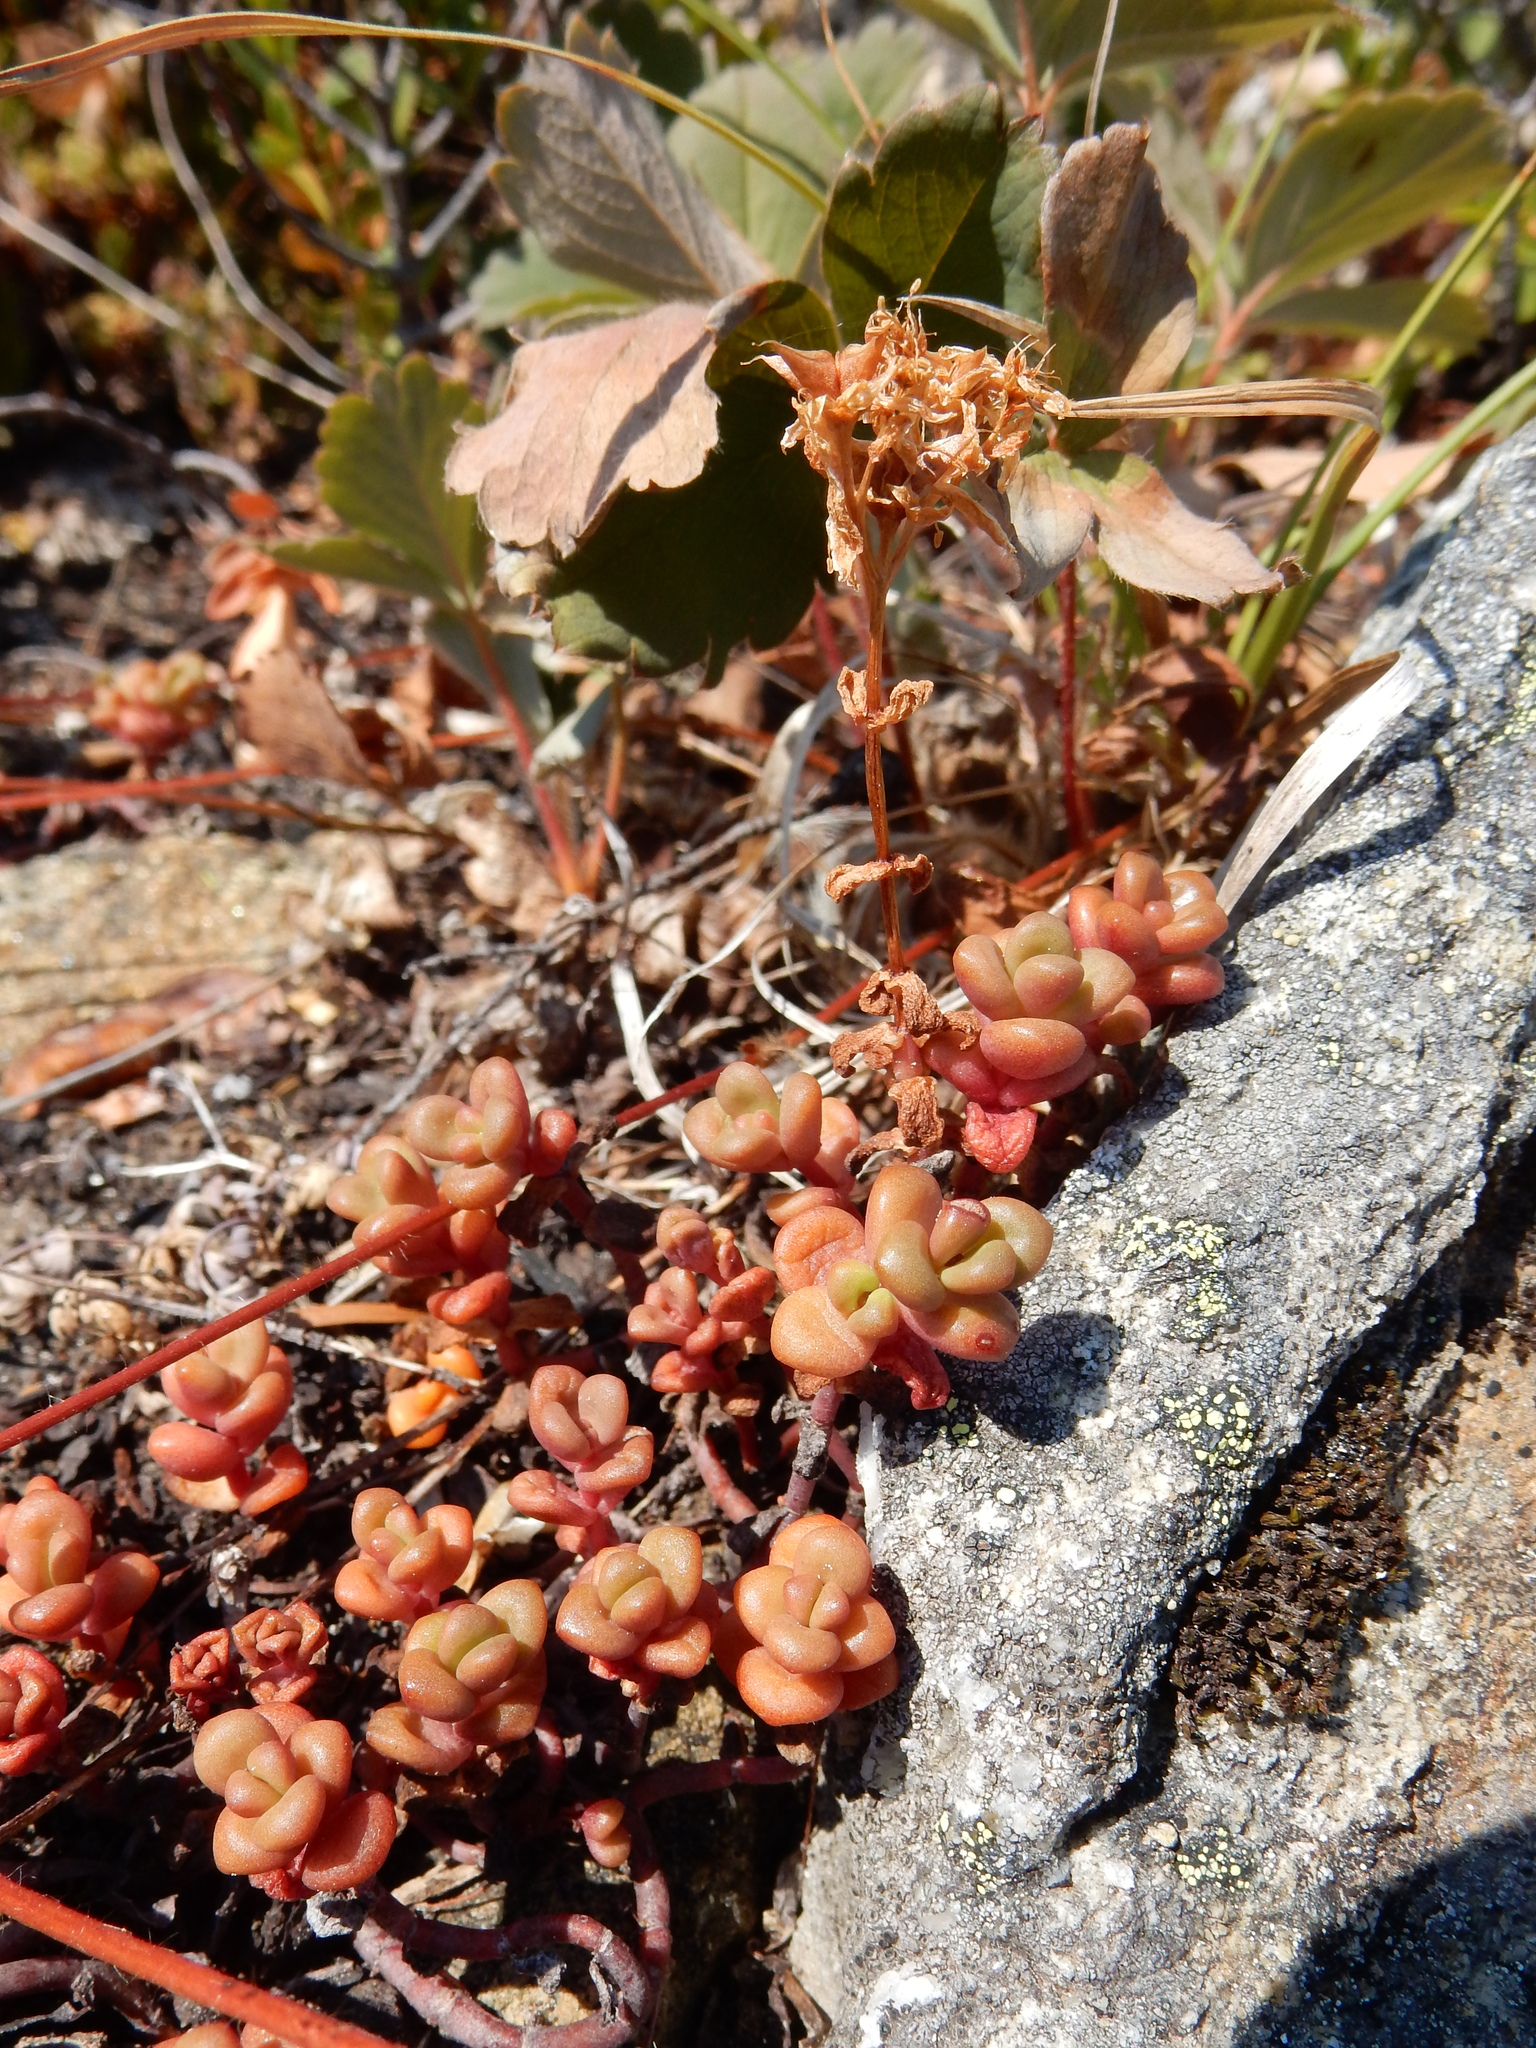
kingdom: Plantae
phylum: Tracheophyta
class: Magnoliopsida
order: Saxifragales
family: Crassulaceae
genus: Sedum
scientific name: Sedum divergens
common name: Cascade stonecrop
